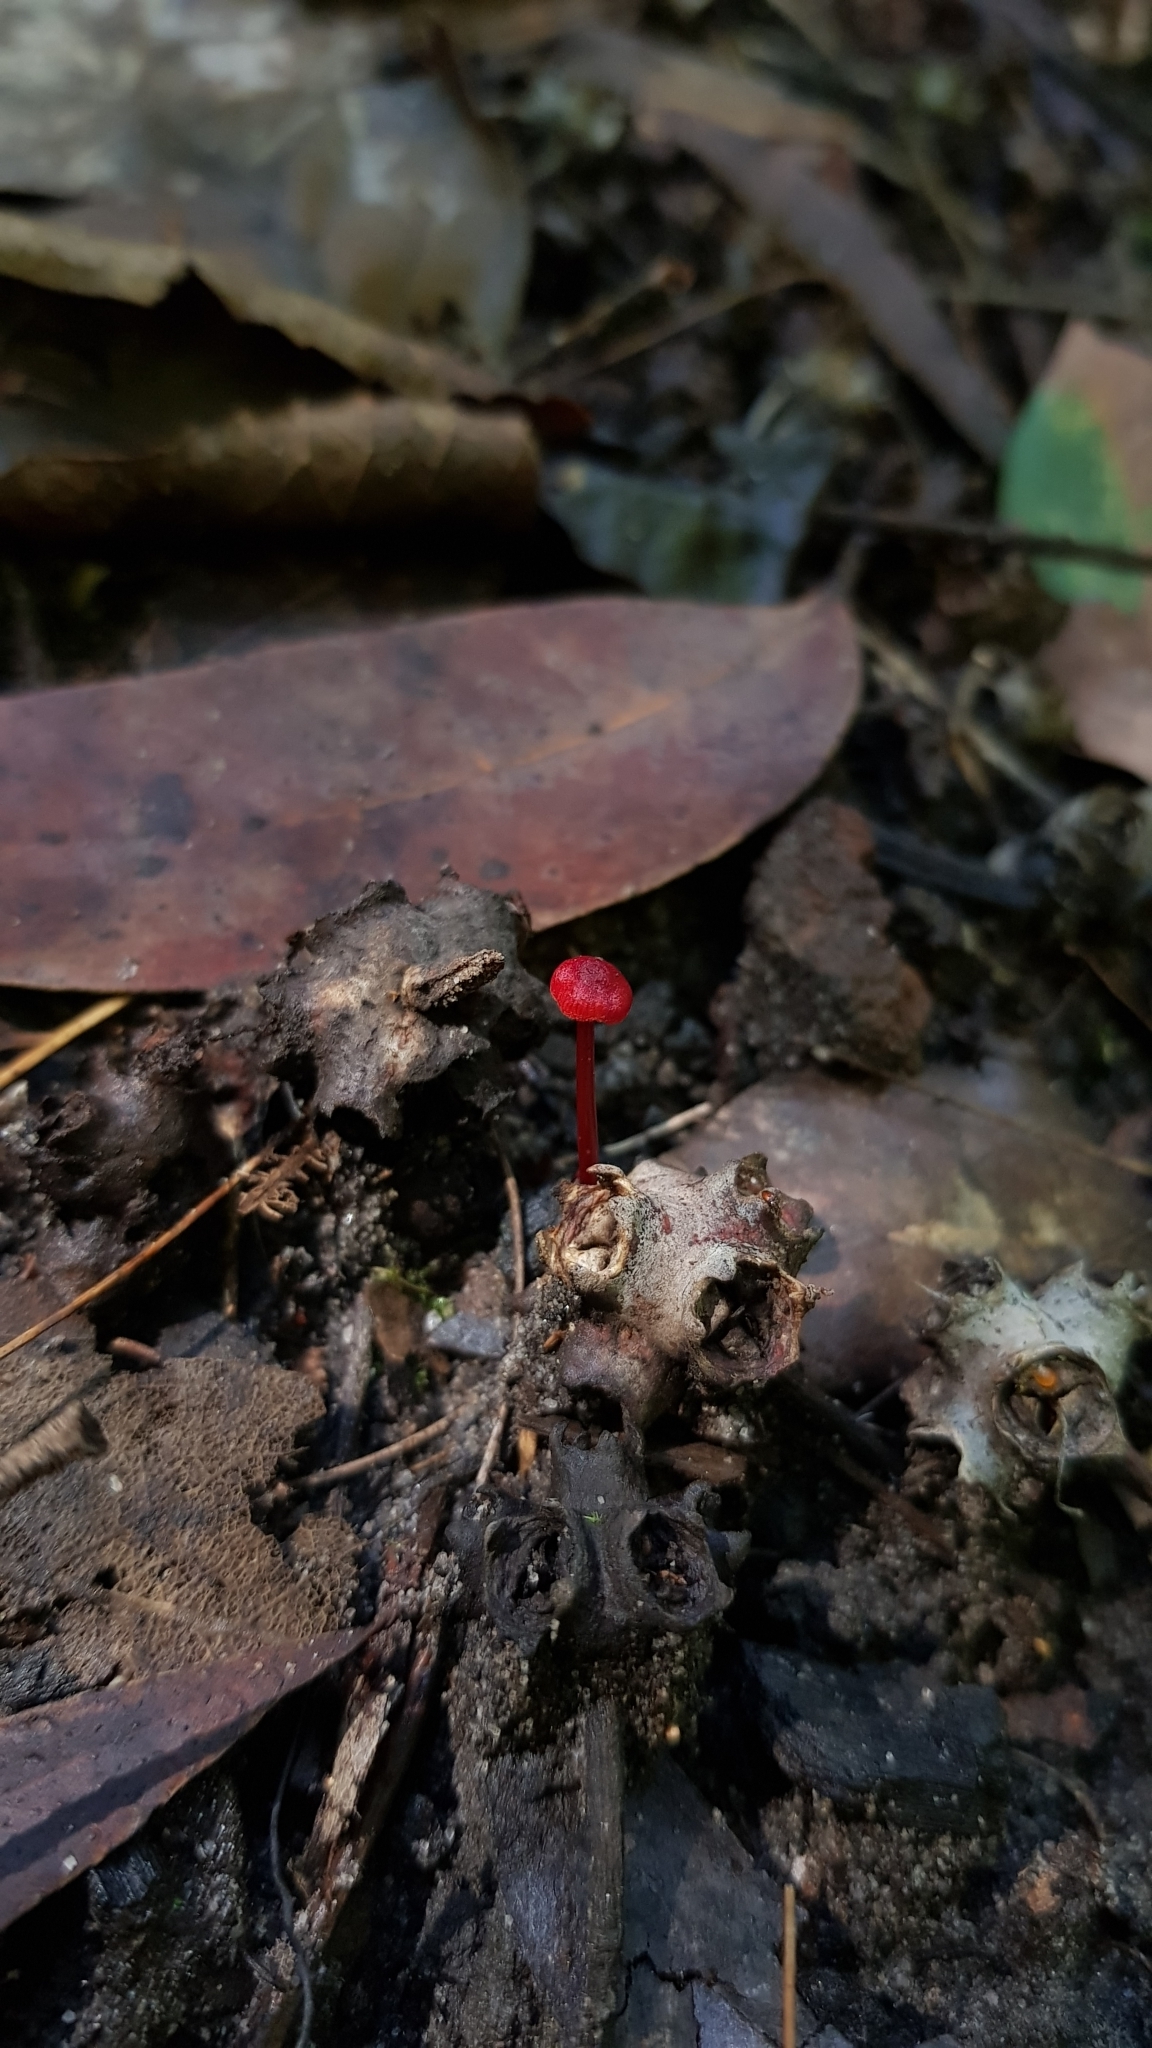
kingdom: Fungi
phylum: Basidiomycota
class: Agaricomycetes
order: Agaricales
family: Mycenaceae
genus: Cruentomycena
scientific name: Cruentomycena viscidocruenta
